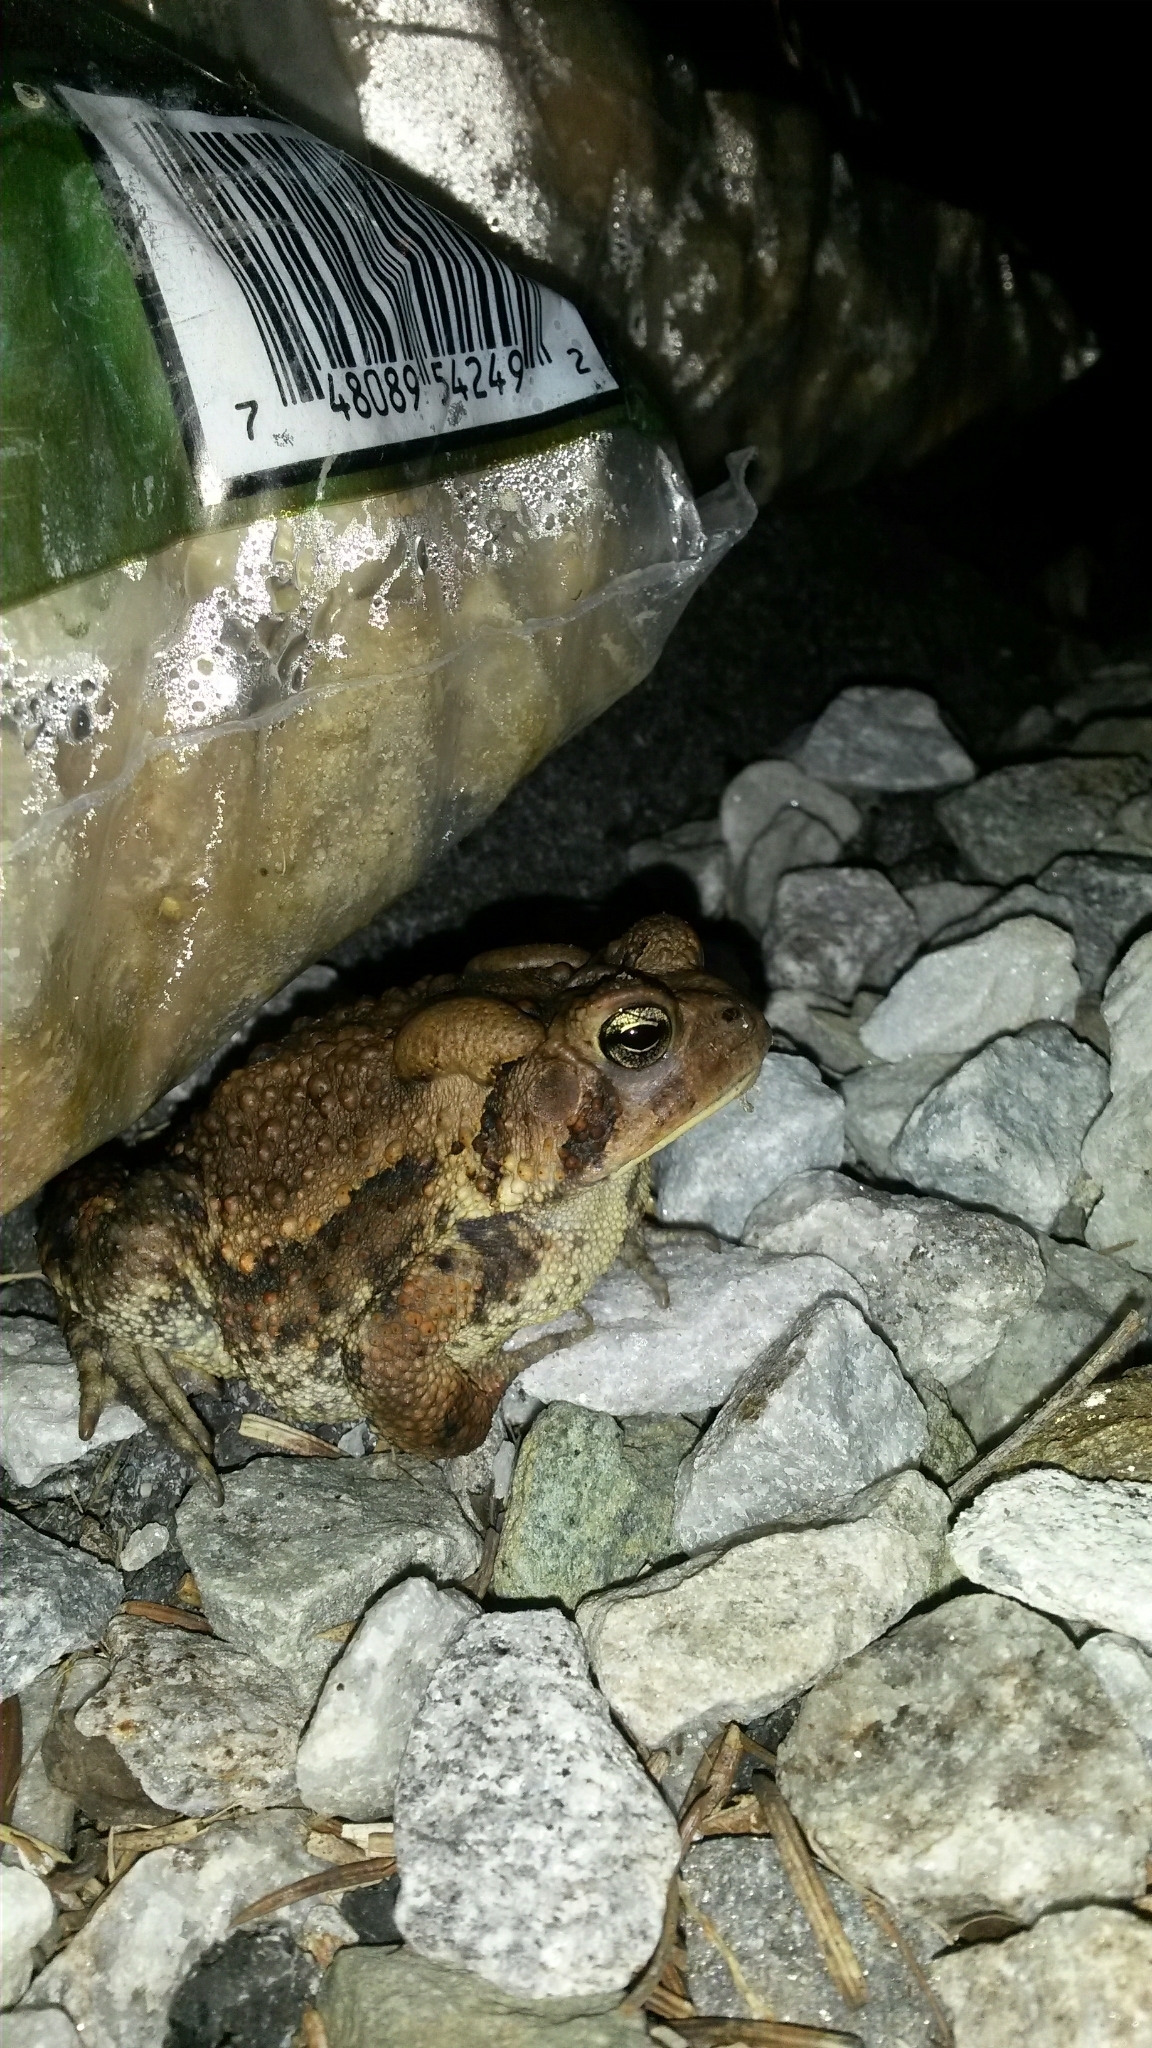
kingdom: Animalia
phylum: Chordata
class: Amphibia
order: Anura
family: Bufonidae
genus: Anaxyrus
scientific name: Anaxyrus americanus
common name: American toad
